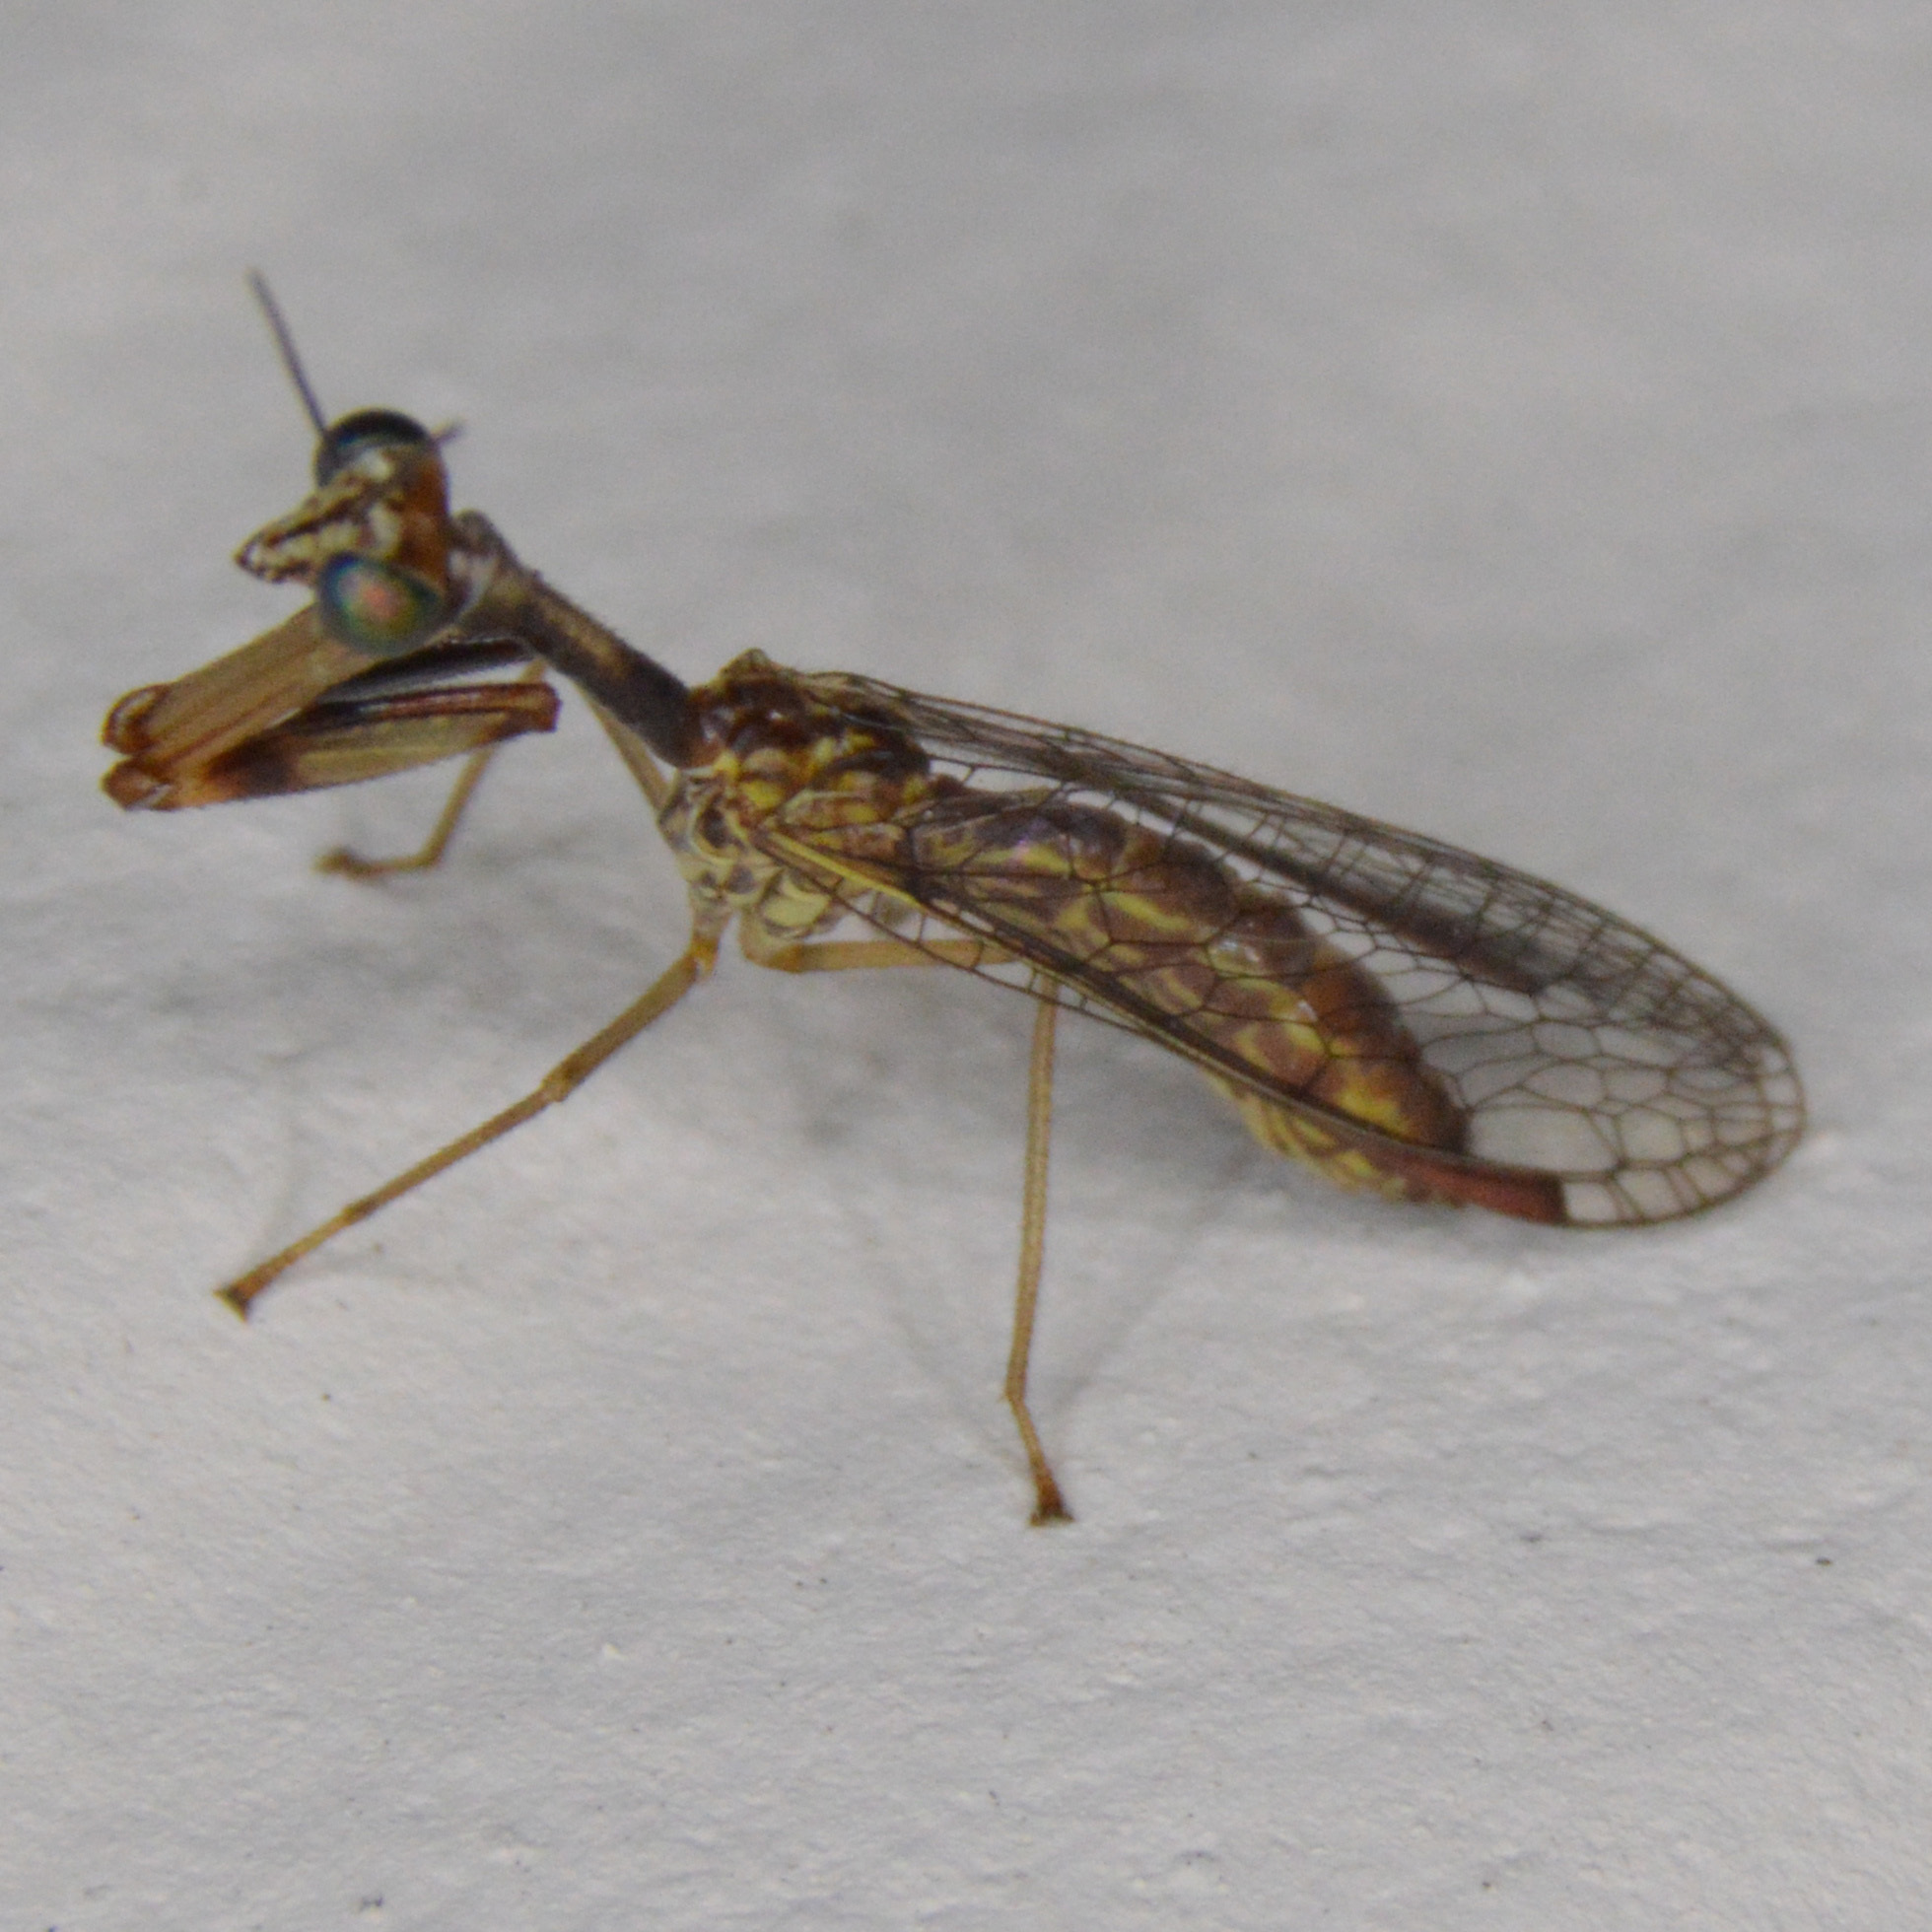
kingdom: Animalia
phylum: Arthropoda
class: Insecta
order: Neuroptera
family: Mantispidae
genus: Leptomantispa
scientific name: Leptomantispa pulchella
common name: Stevens's mantidfly
